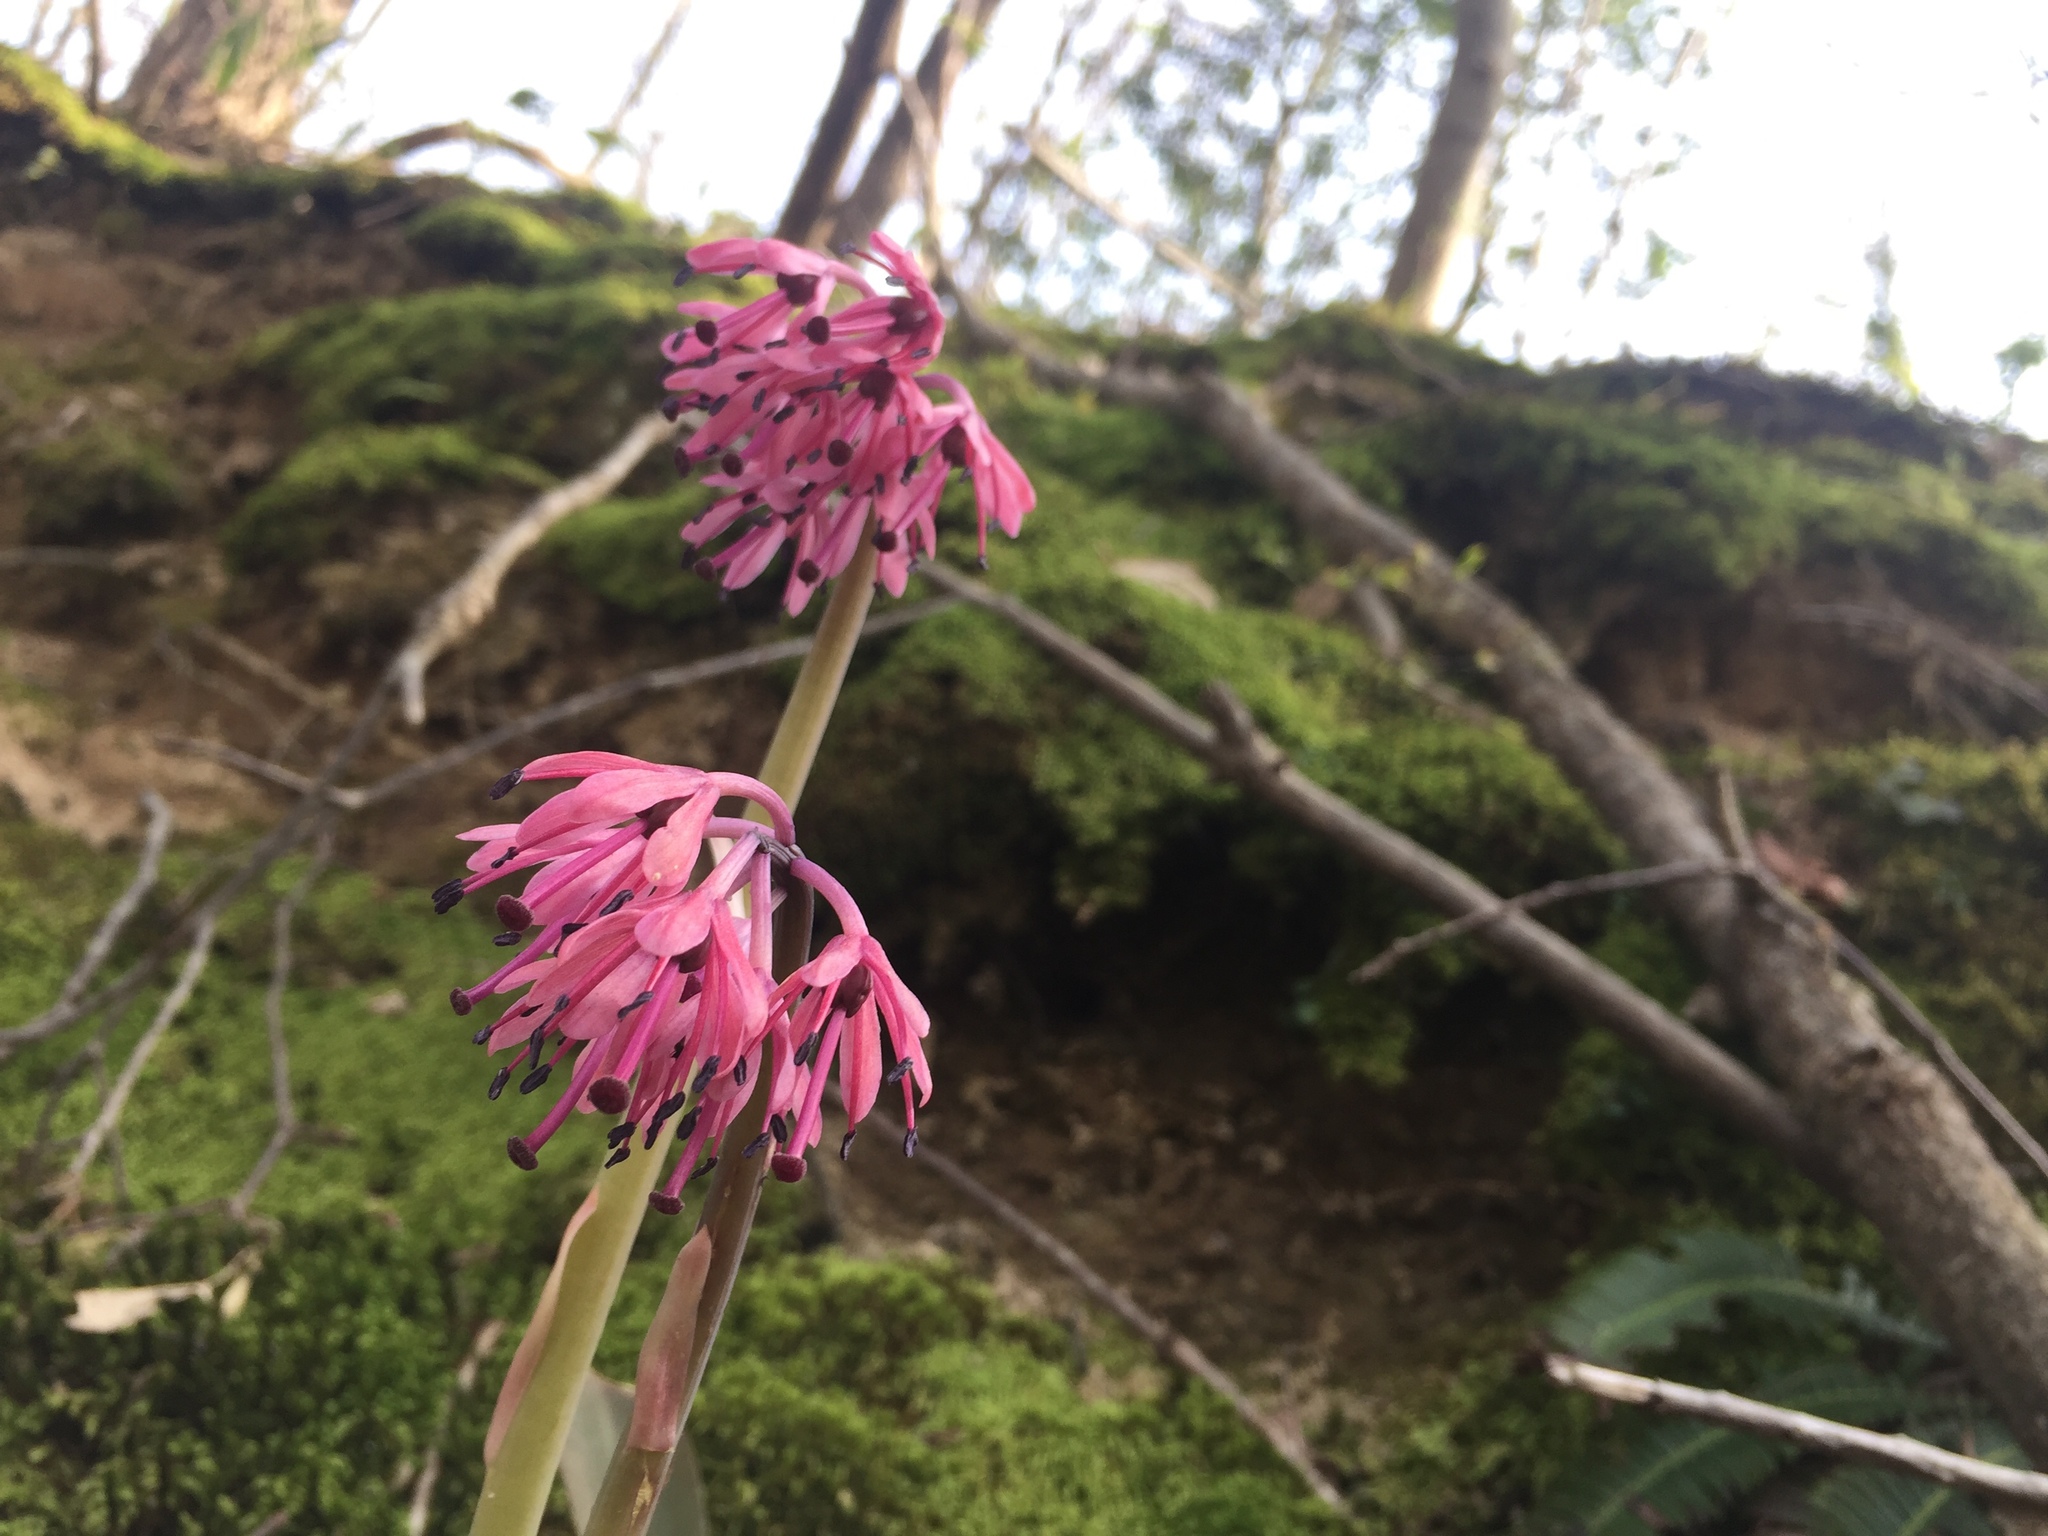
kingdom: Plantae
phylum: Tracheophyta
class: Liliopsida
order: Liliales
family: Melanthiaceae
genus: Helonias
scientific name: Helonias orientalis
